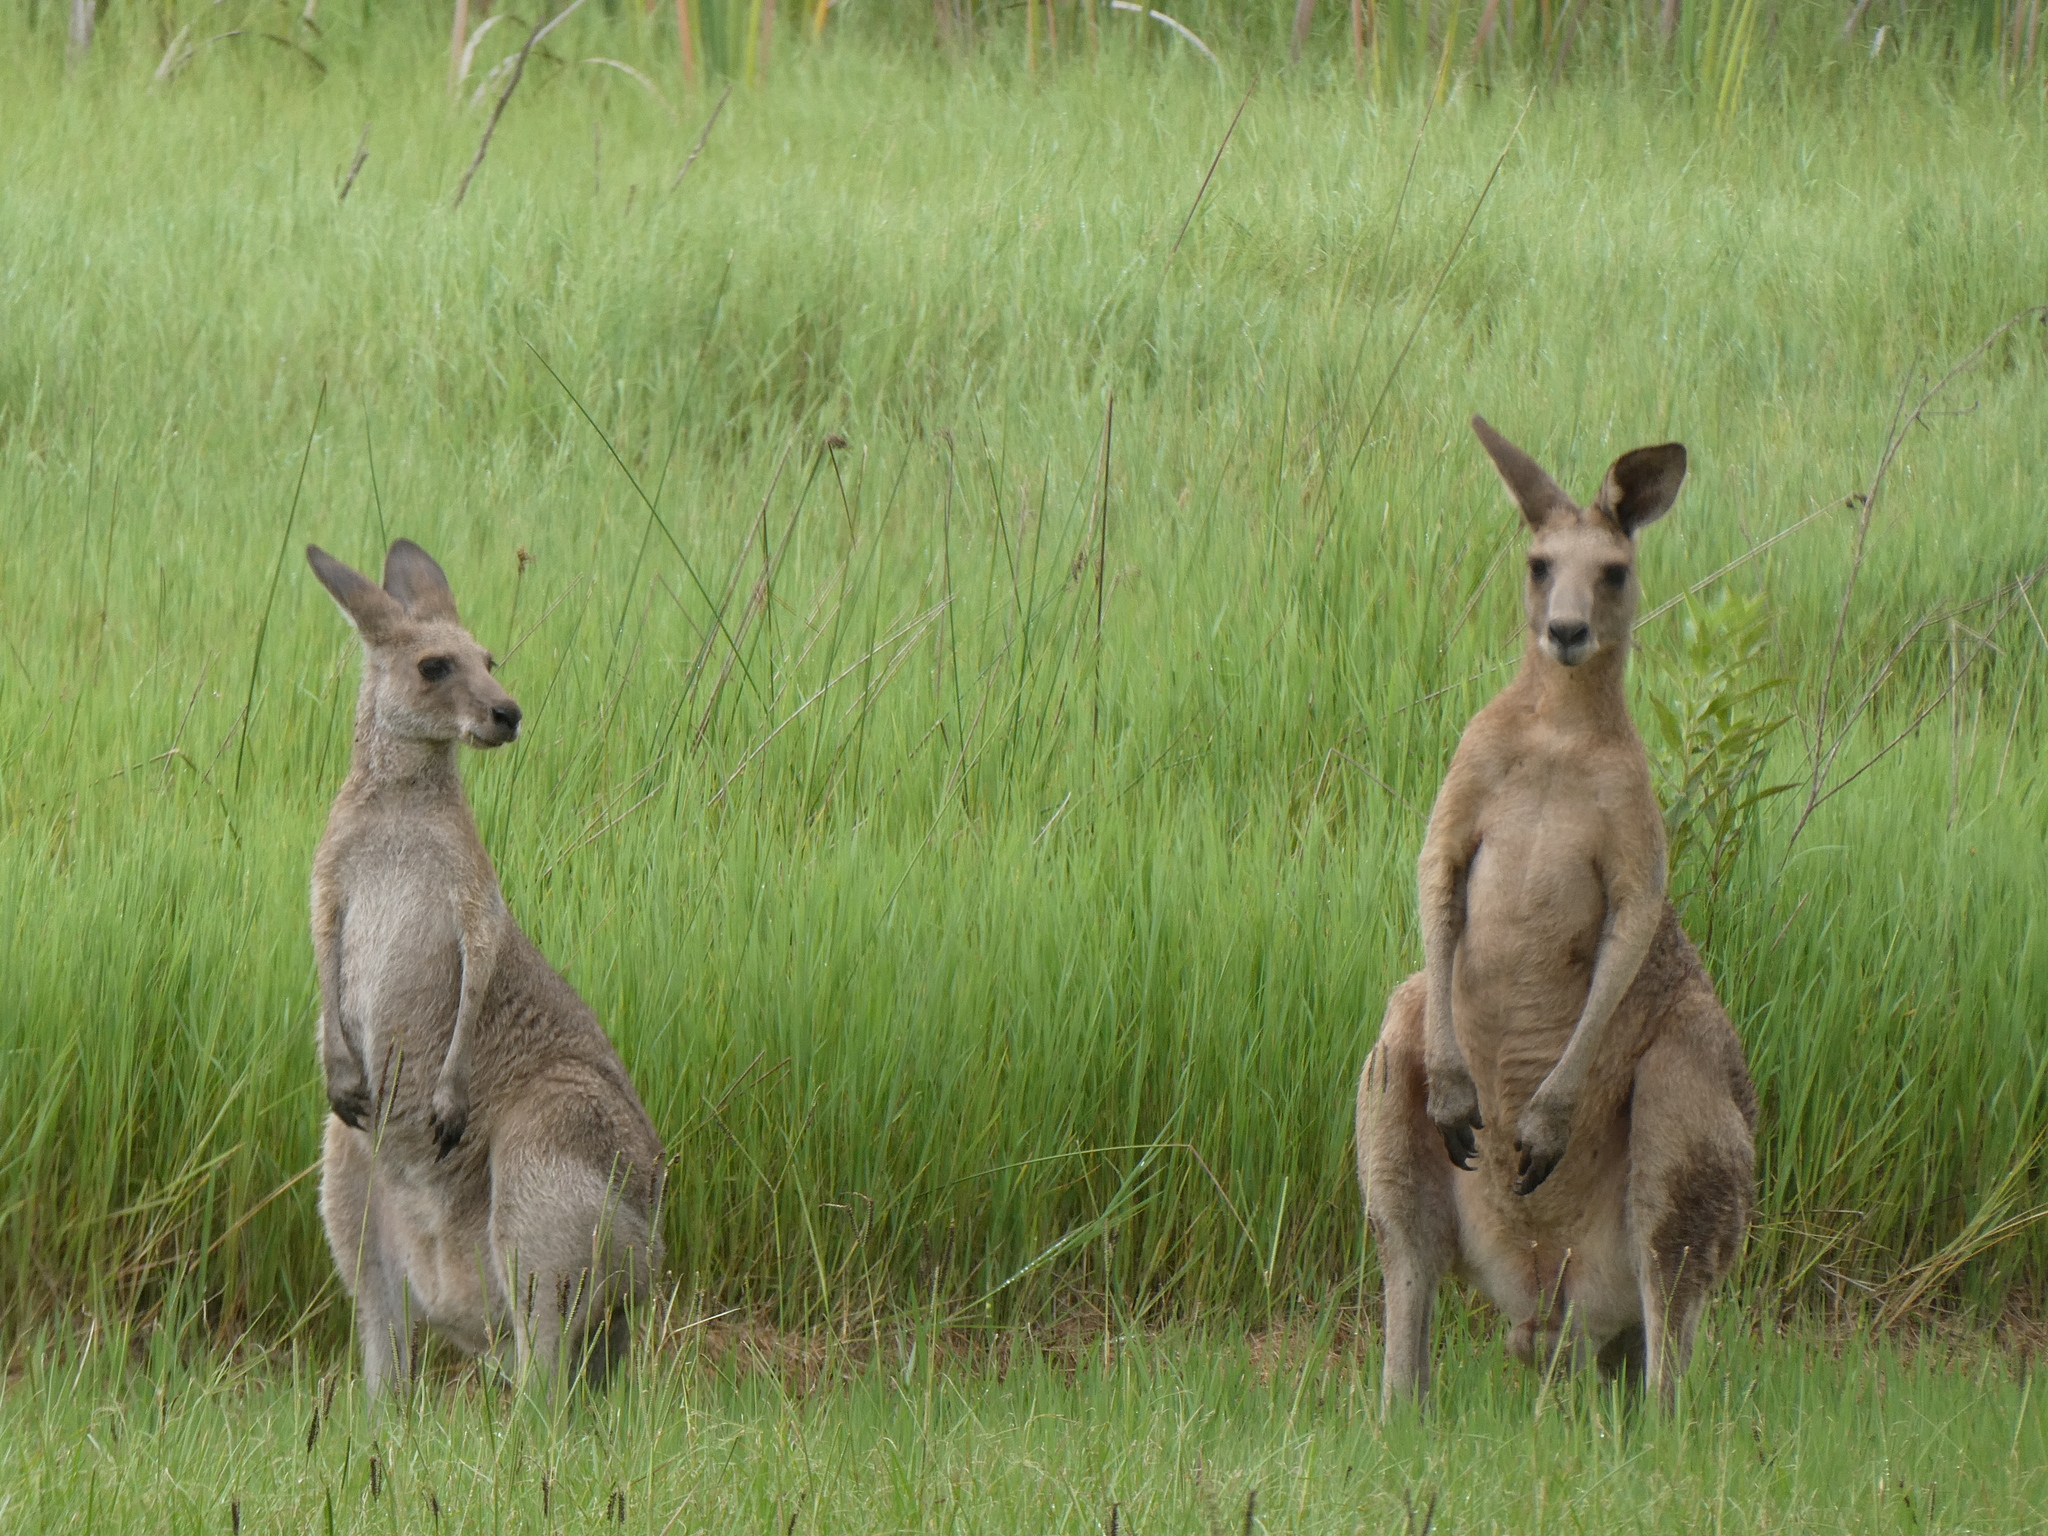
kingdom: Animalia
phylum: Chordata
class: Mammalia
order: Diprotodontia
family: Macropodidae
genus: Macropus
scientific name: Macropus giganteus
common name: Eastern grey kangaroo
